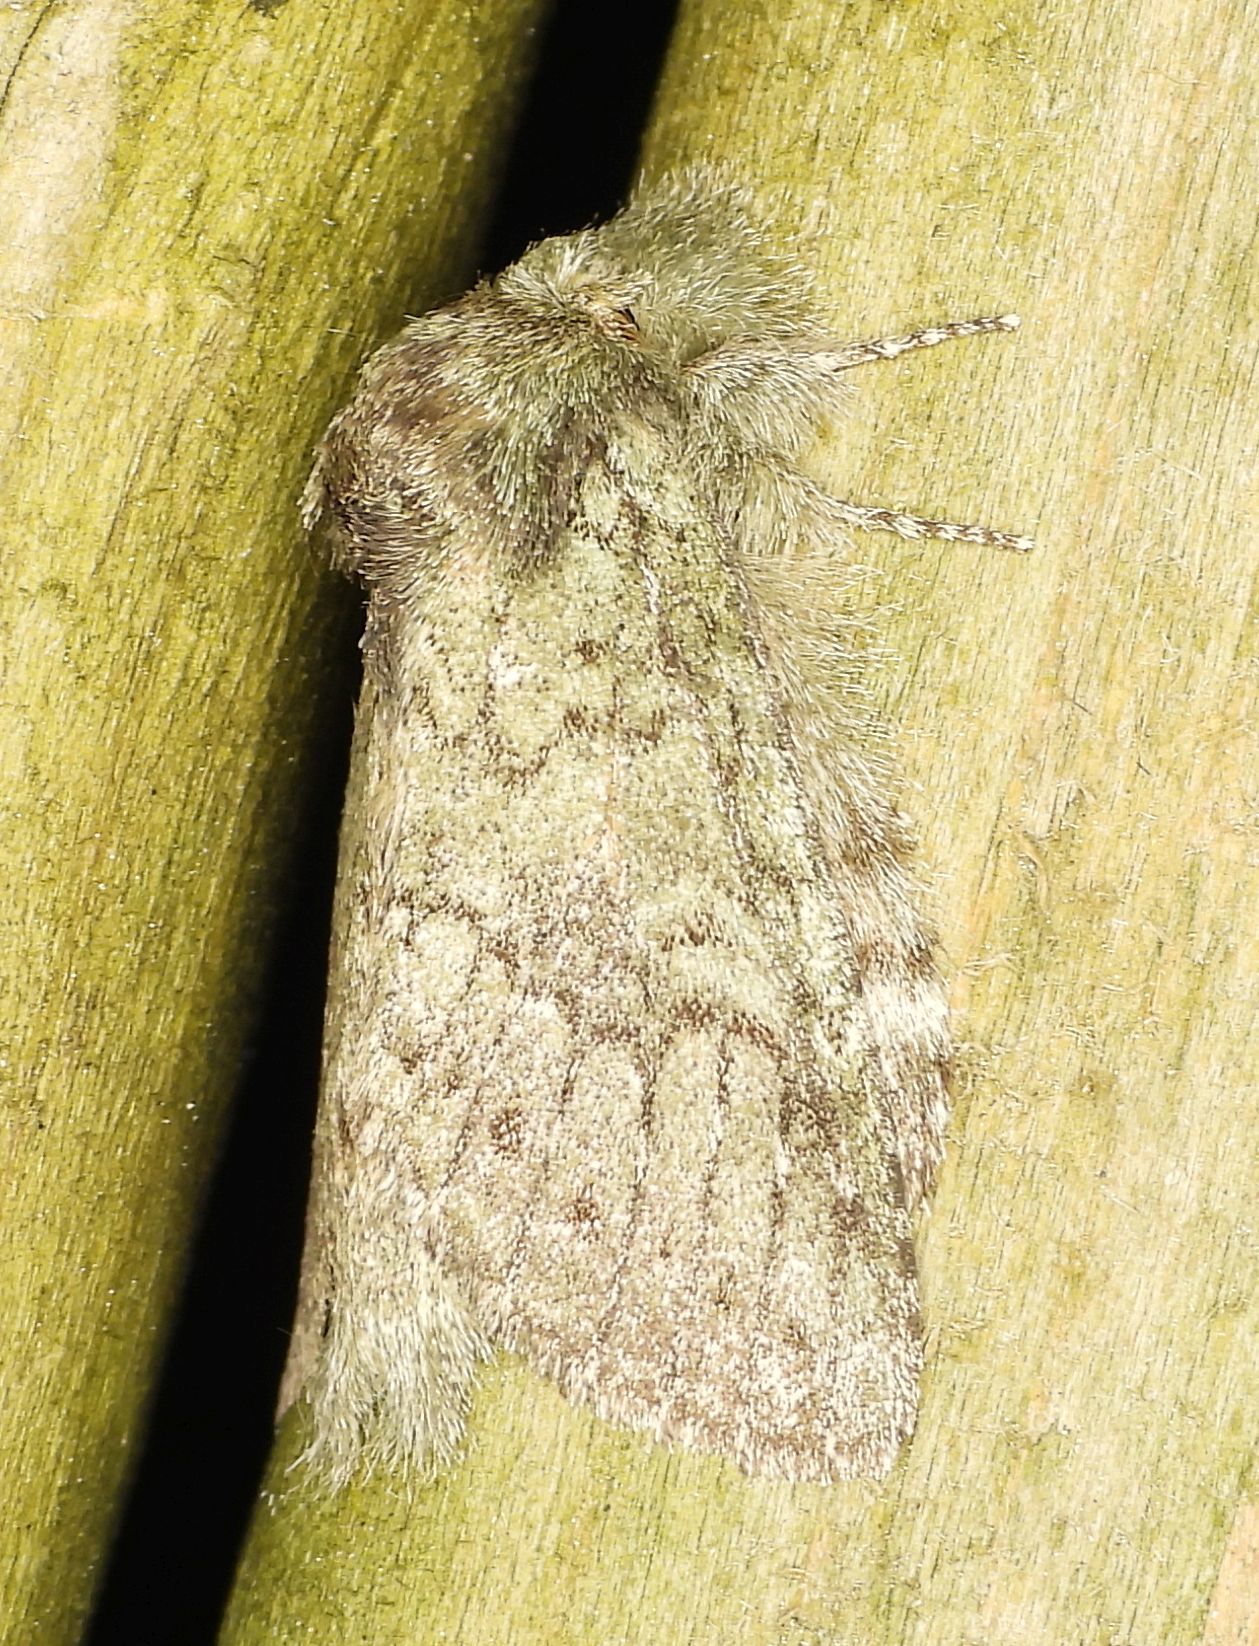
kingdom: Animalia
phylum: Arthropoda
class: Insecta
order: Lepidoptera
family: Notodontidae
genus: Disphragis
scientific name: Disphragis Cecrita guttivitta
